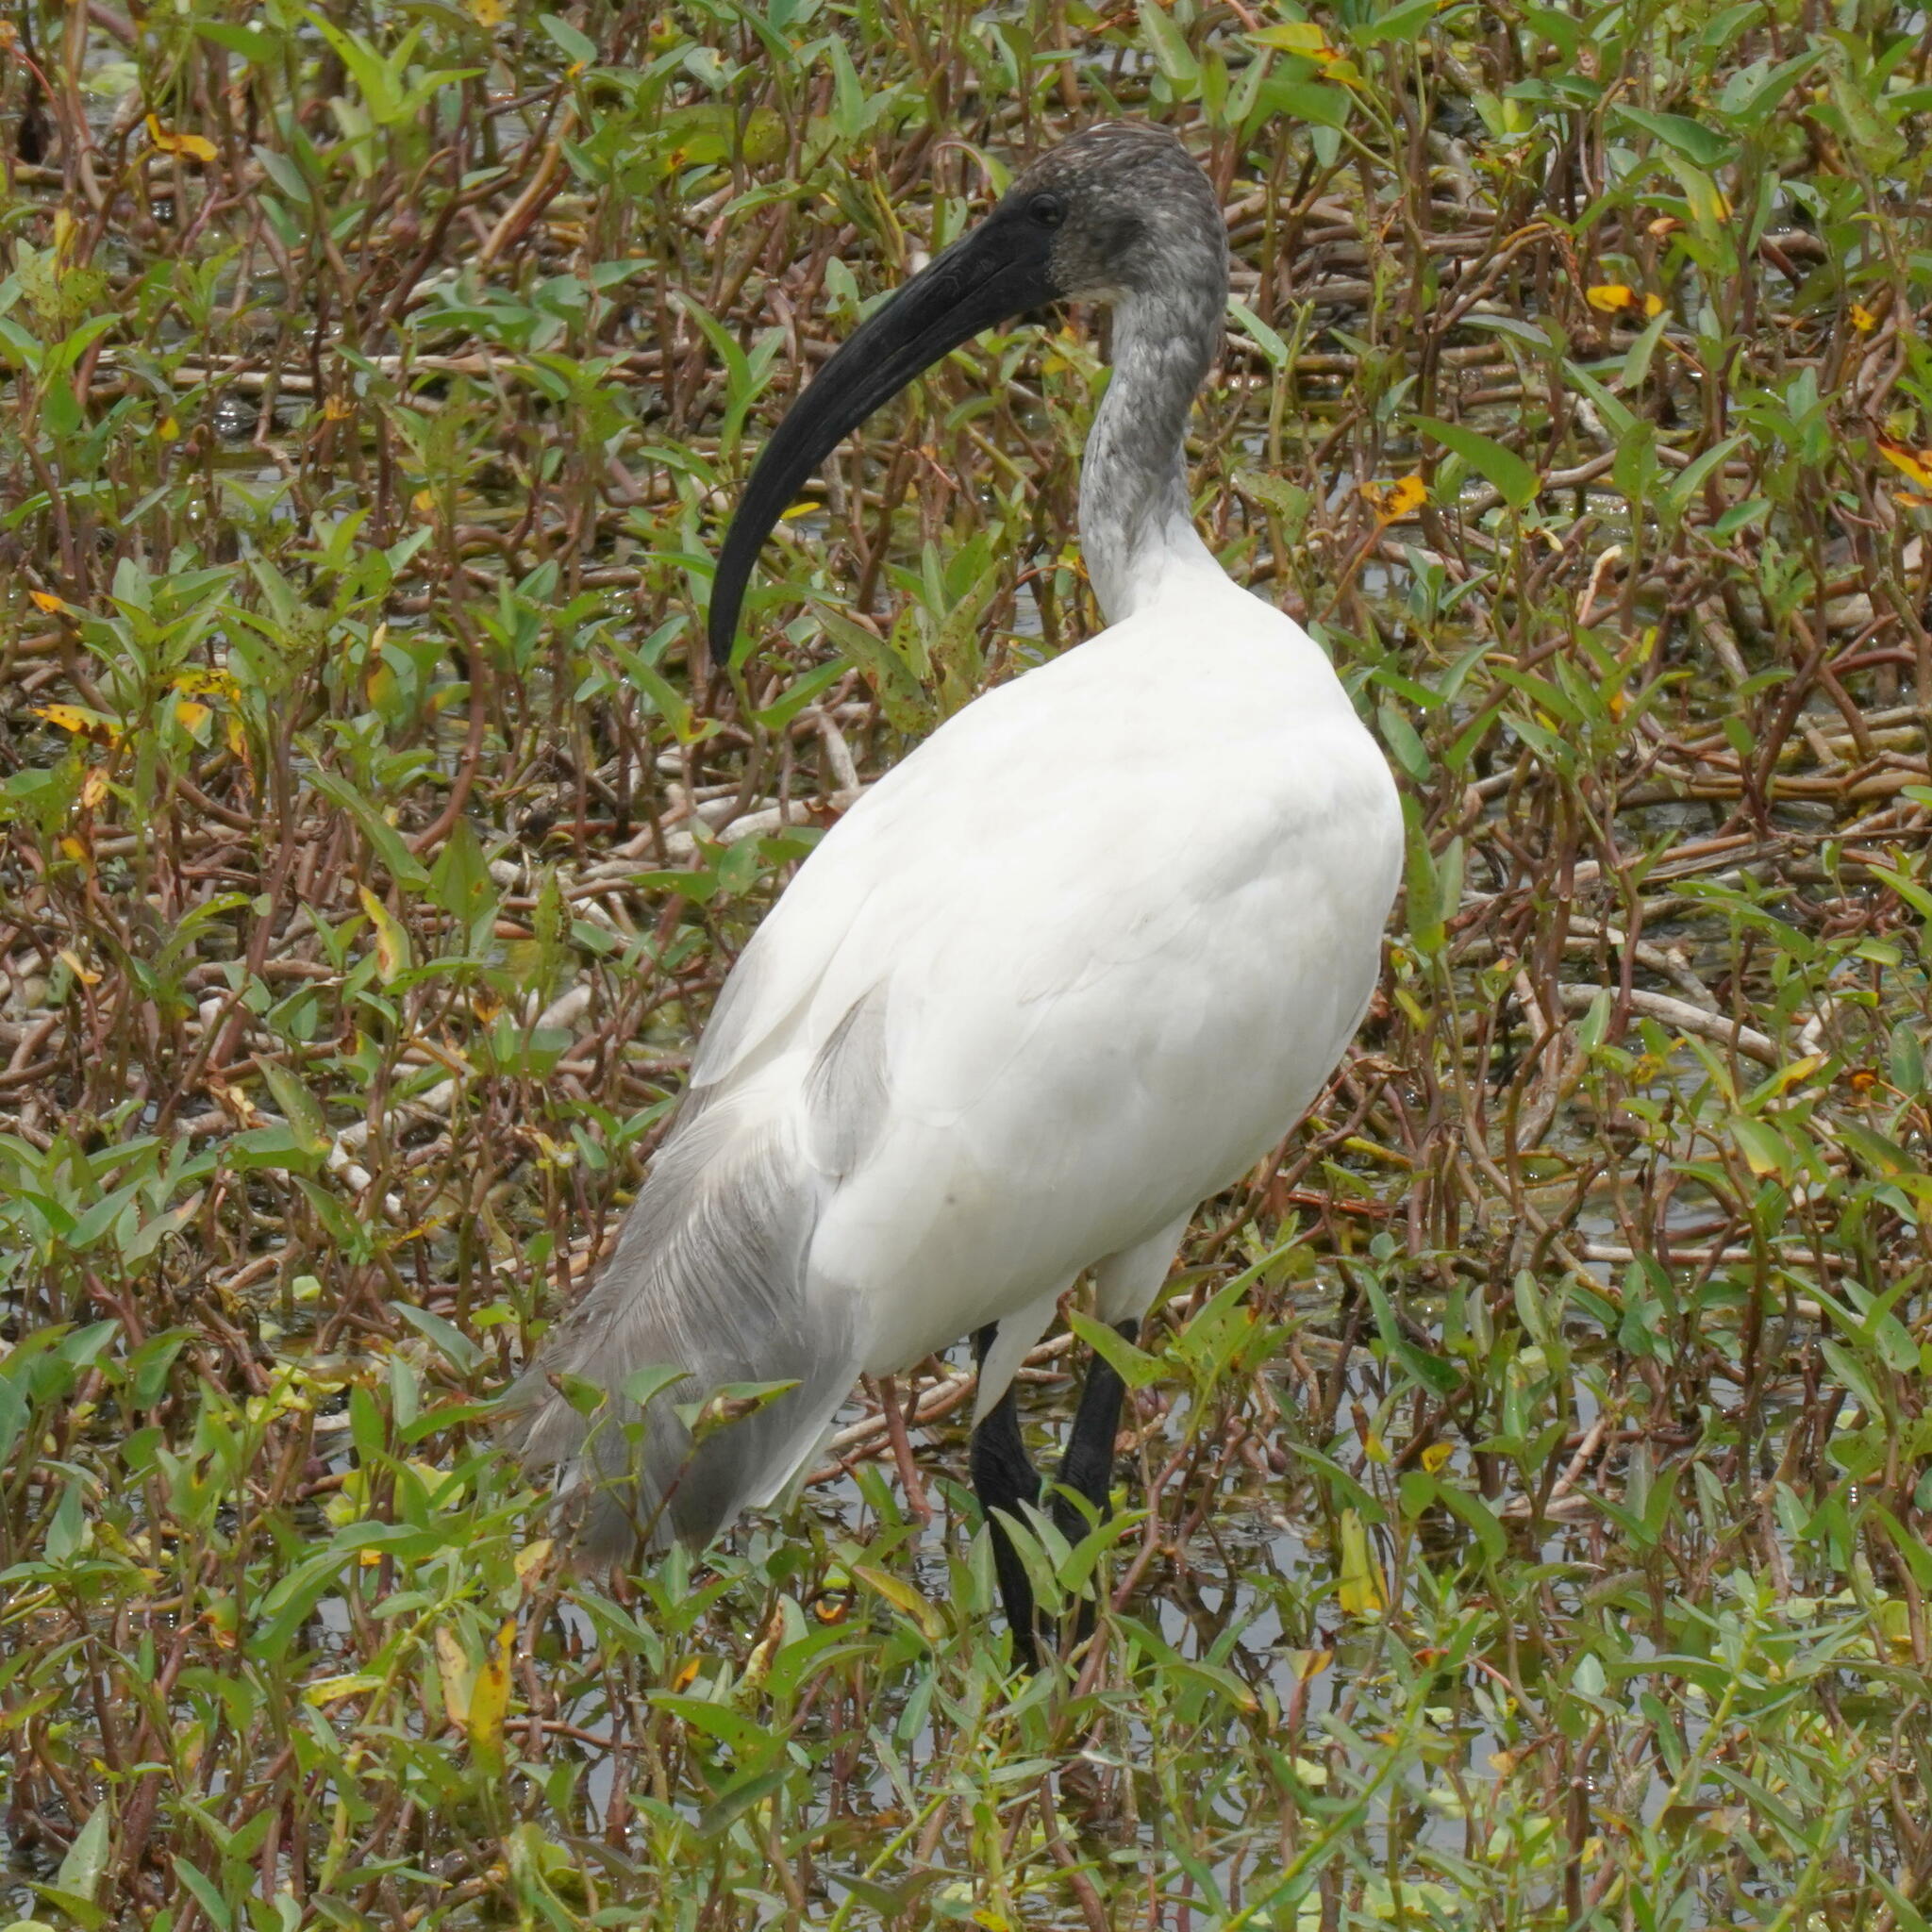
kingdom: Animalia
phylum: Chordata
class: Aves
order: Pelecaniformes
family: Threskiornithidae
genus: Threskiornis
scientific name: Threskiornis melanocephalus
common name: Black-headed ibis
